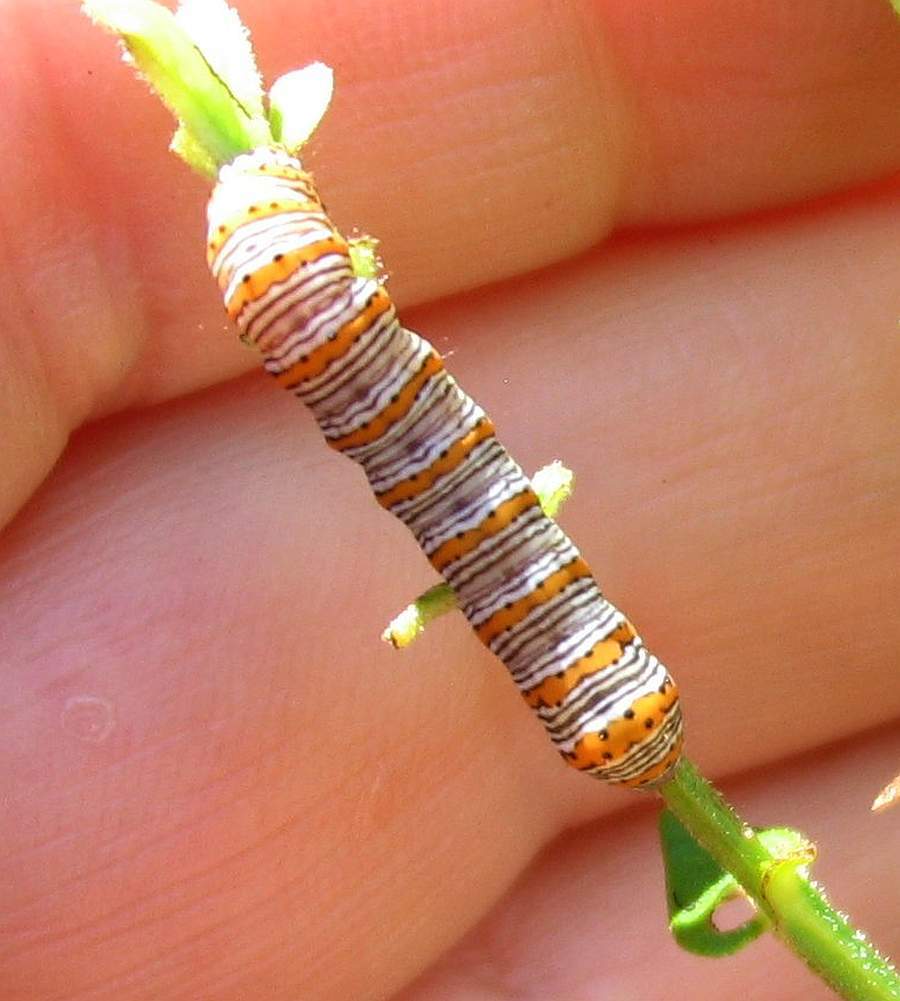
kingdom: Animalia
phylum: Arthropoda
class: Insecta
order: Lepidoptera
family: Noctuidae
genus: Eudryas
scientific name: Eudryas unio
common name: Pearly wood-nymph
